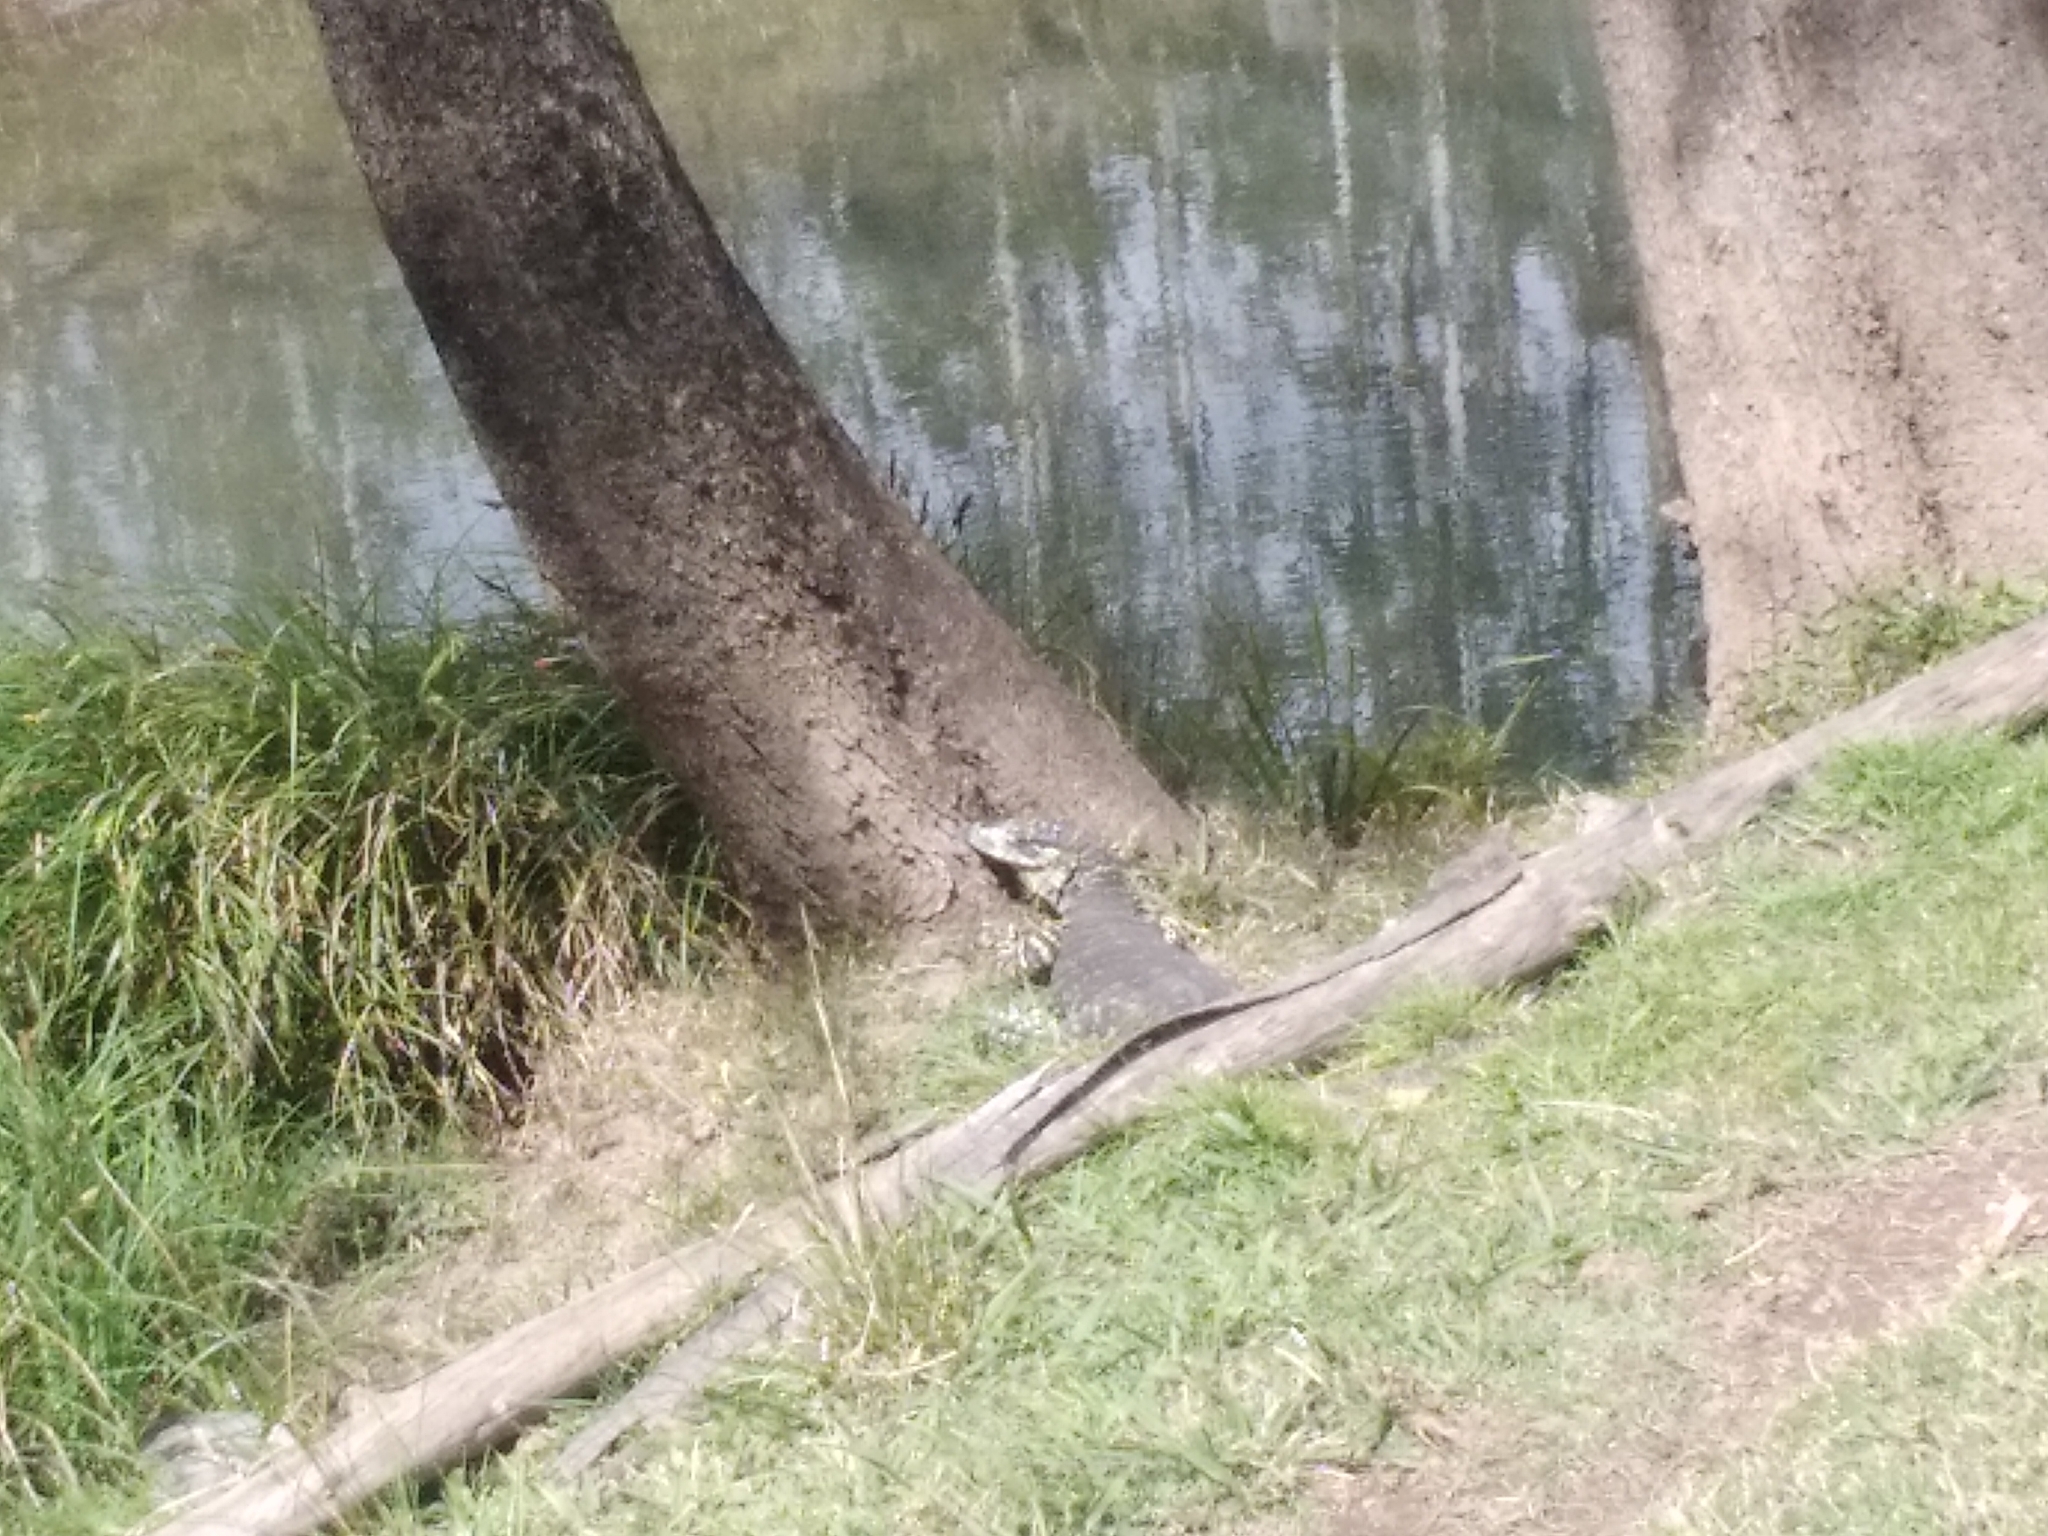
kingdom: Animalia
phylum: Chordata
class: Squamata
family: Varanidae
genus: Varanus
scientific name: Varanus varius
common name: Lace monitor
